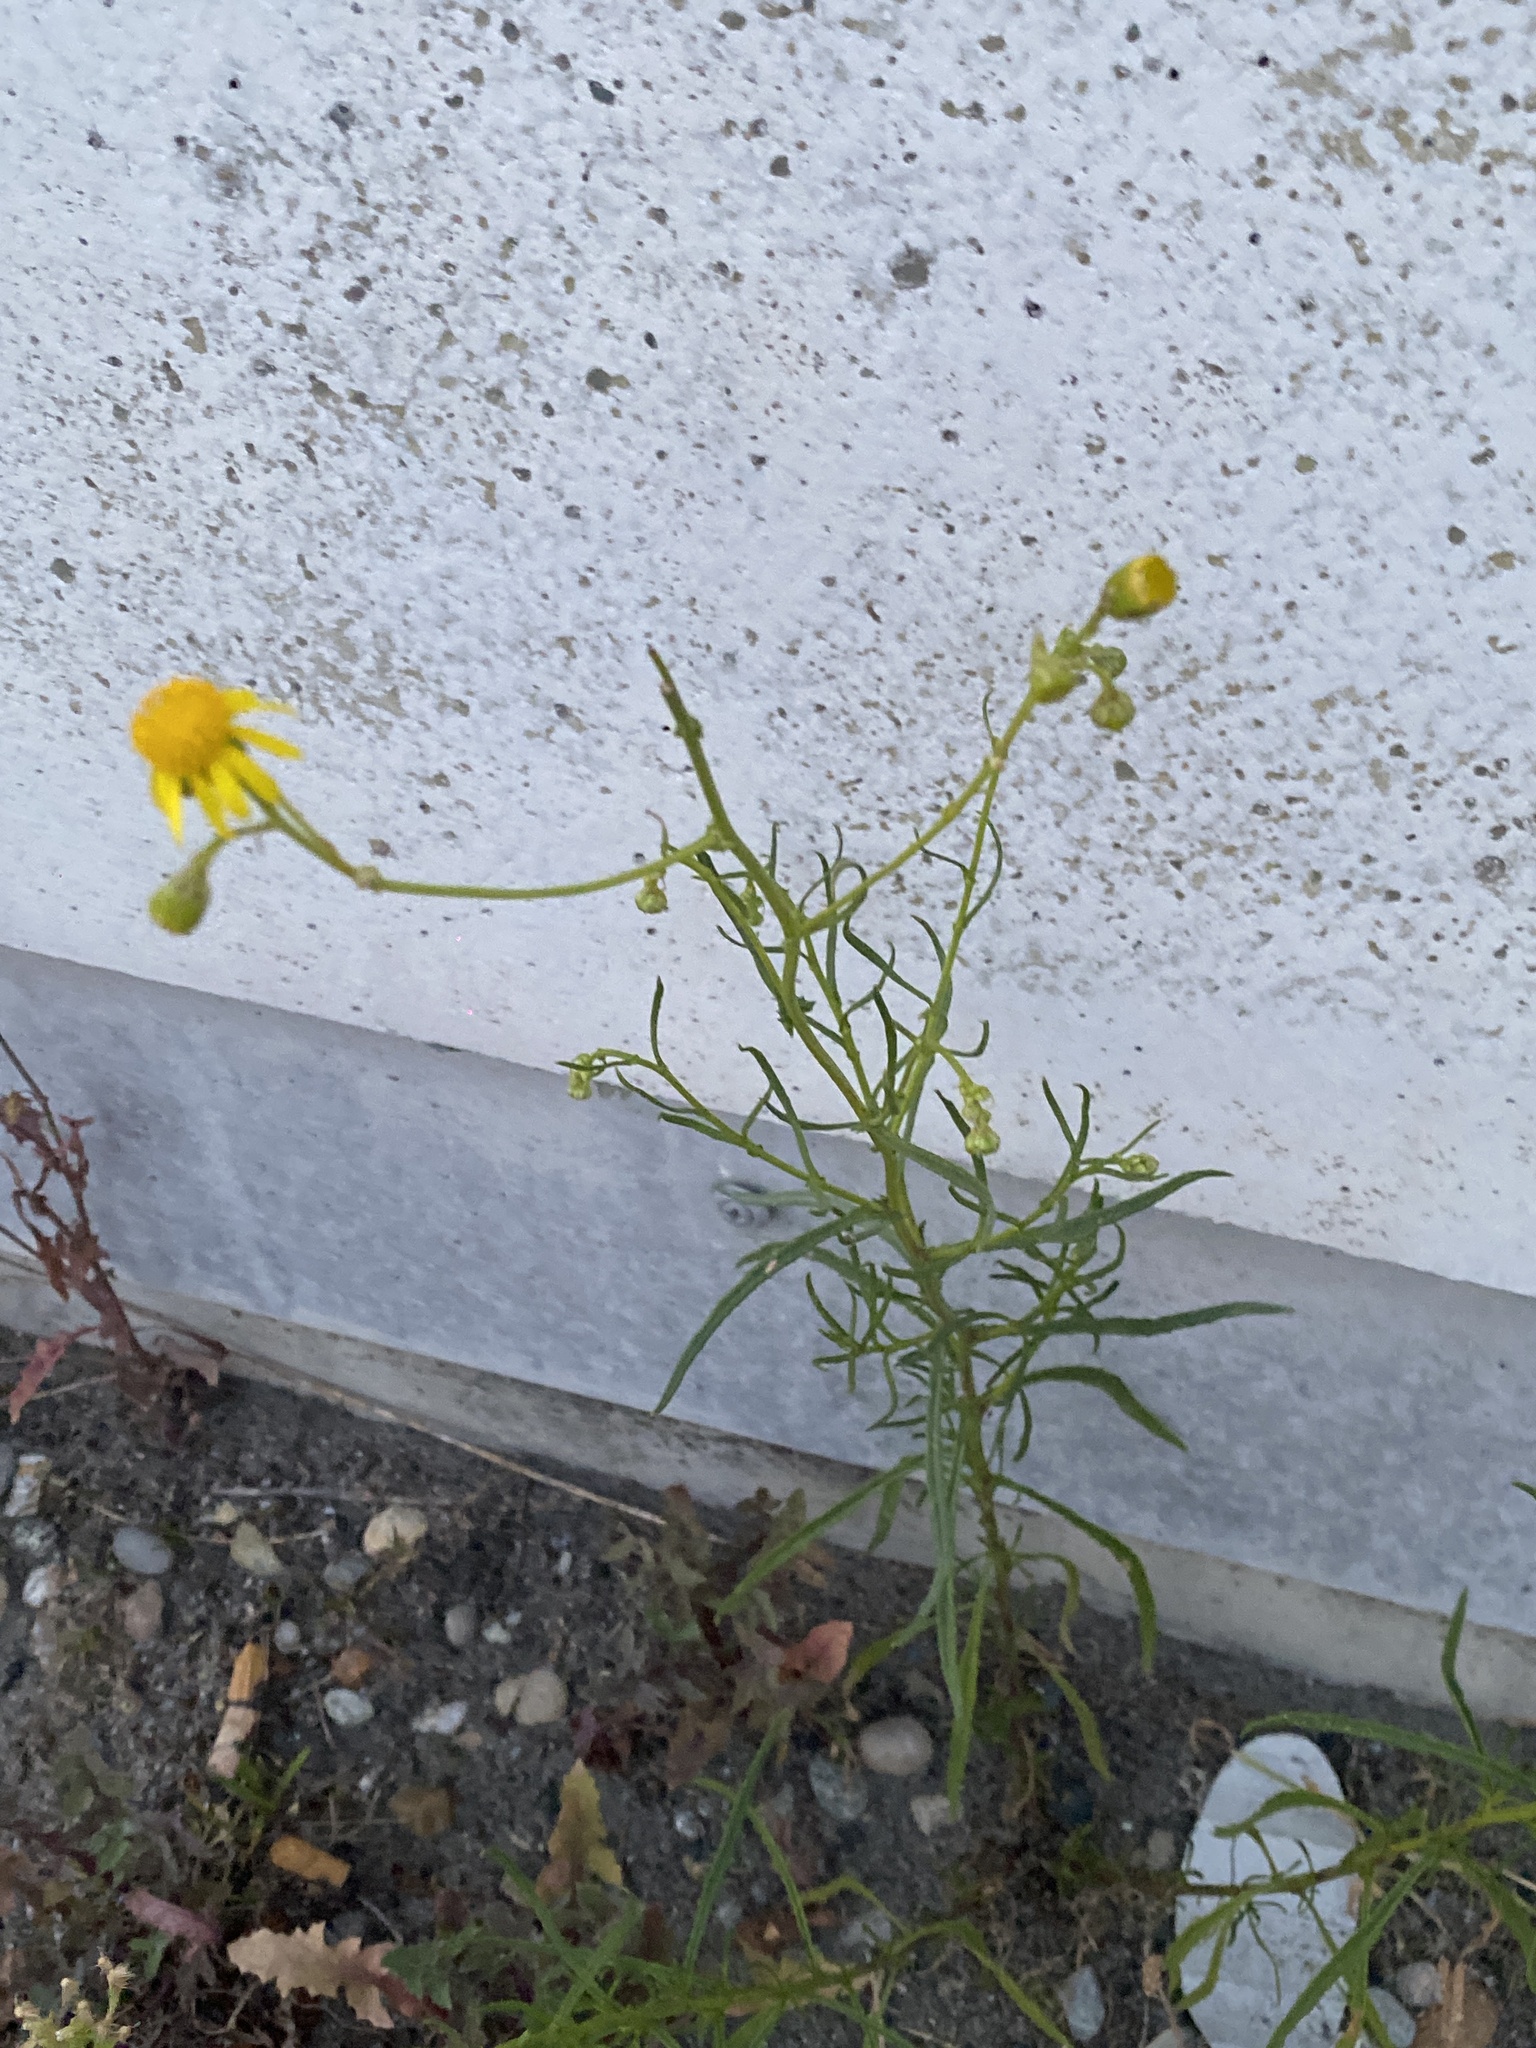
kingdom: Plantae
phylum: Tracheophyta
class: Magnoliopsida
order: Asterales
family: Asteraceae
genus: Senecio
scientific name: Senecio inaequidens
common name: Narrow-leaved ragwort
